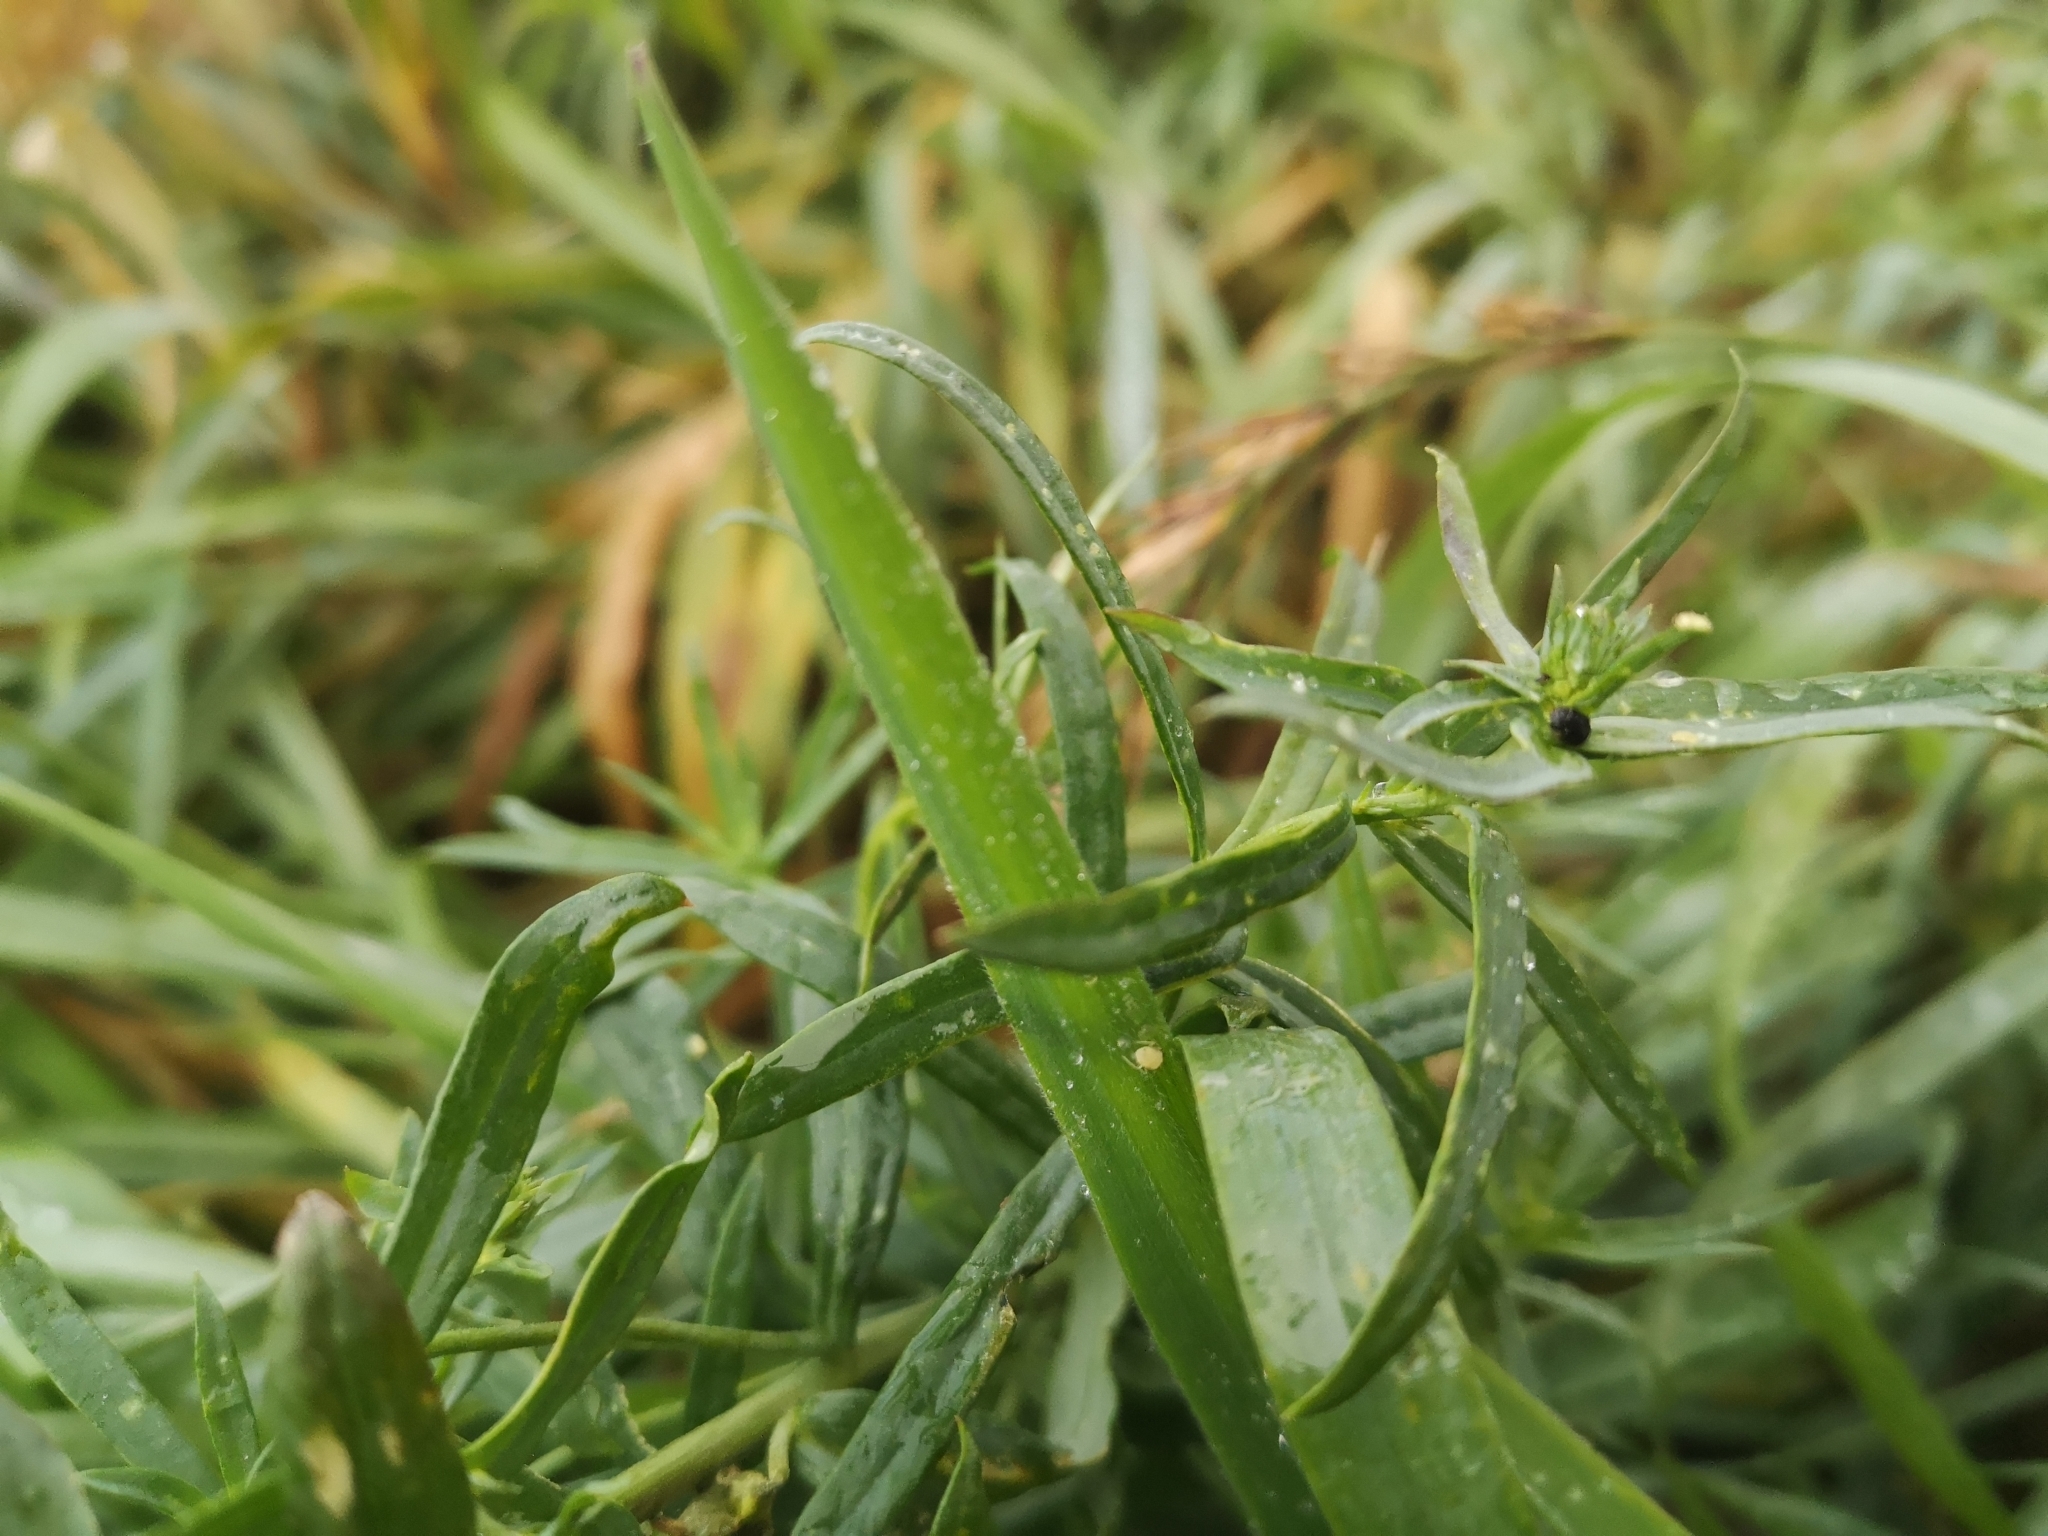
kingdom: Plantae
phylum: Tracheophyta
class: Magnoliopsida
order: Lamiales
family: Plantaginaceae
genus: Linaria
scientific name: Linaria vulgaris
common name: Butter and eggs
